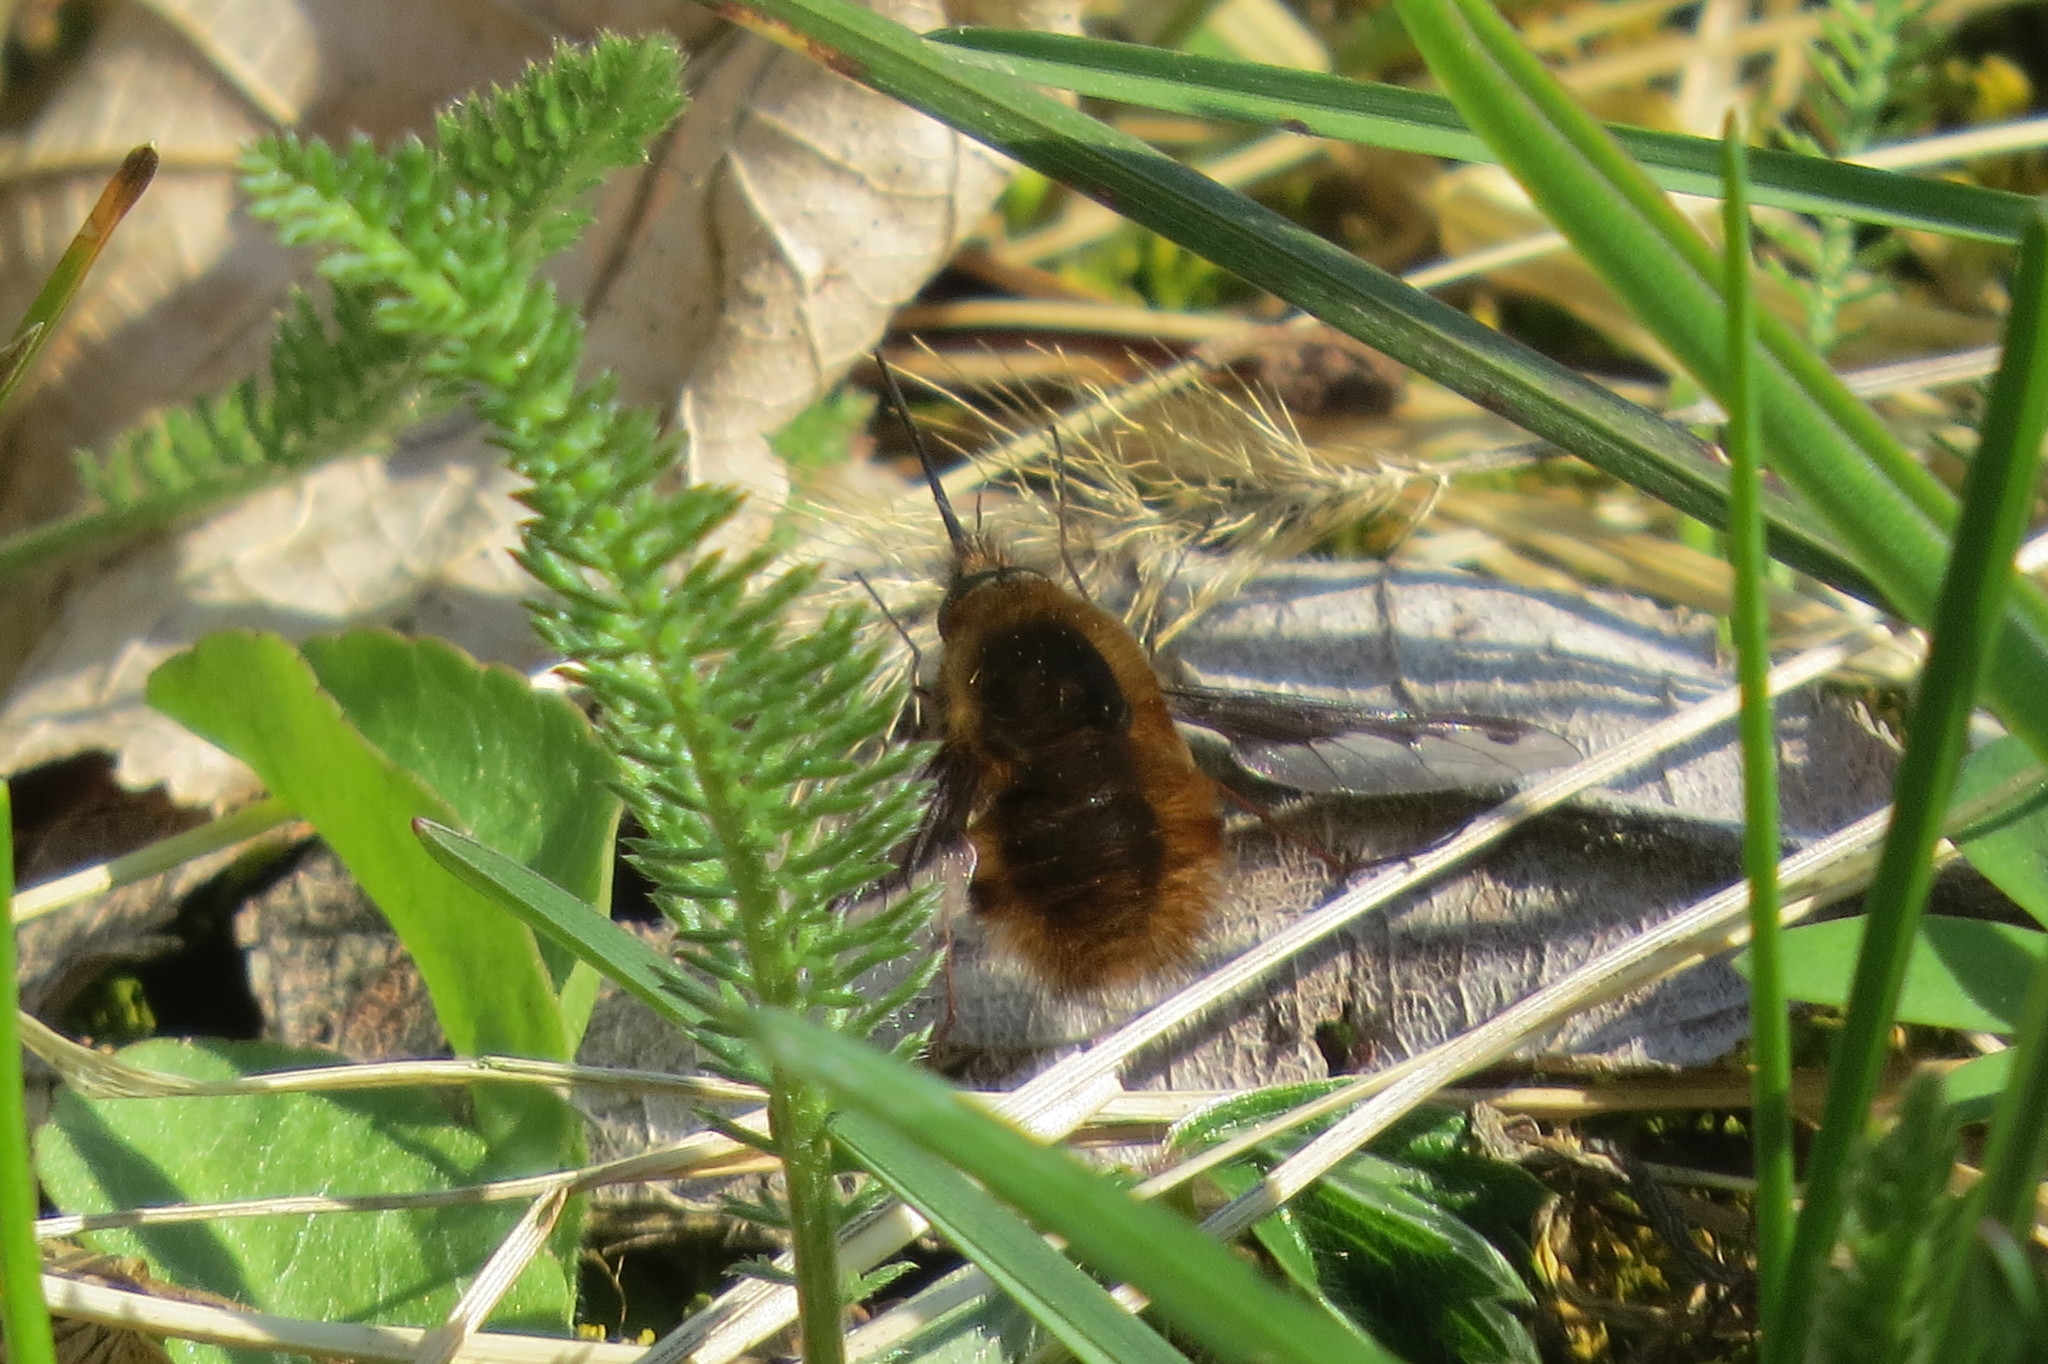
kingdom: Animalia
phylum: Arthropoda
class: Insecta
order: Diptera
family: Bombyliidae
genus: Bombylius
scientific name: Bombylius major
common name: Bee fly
